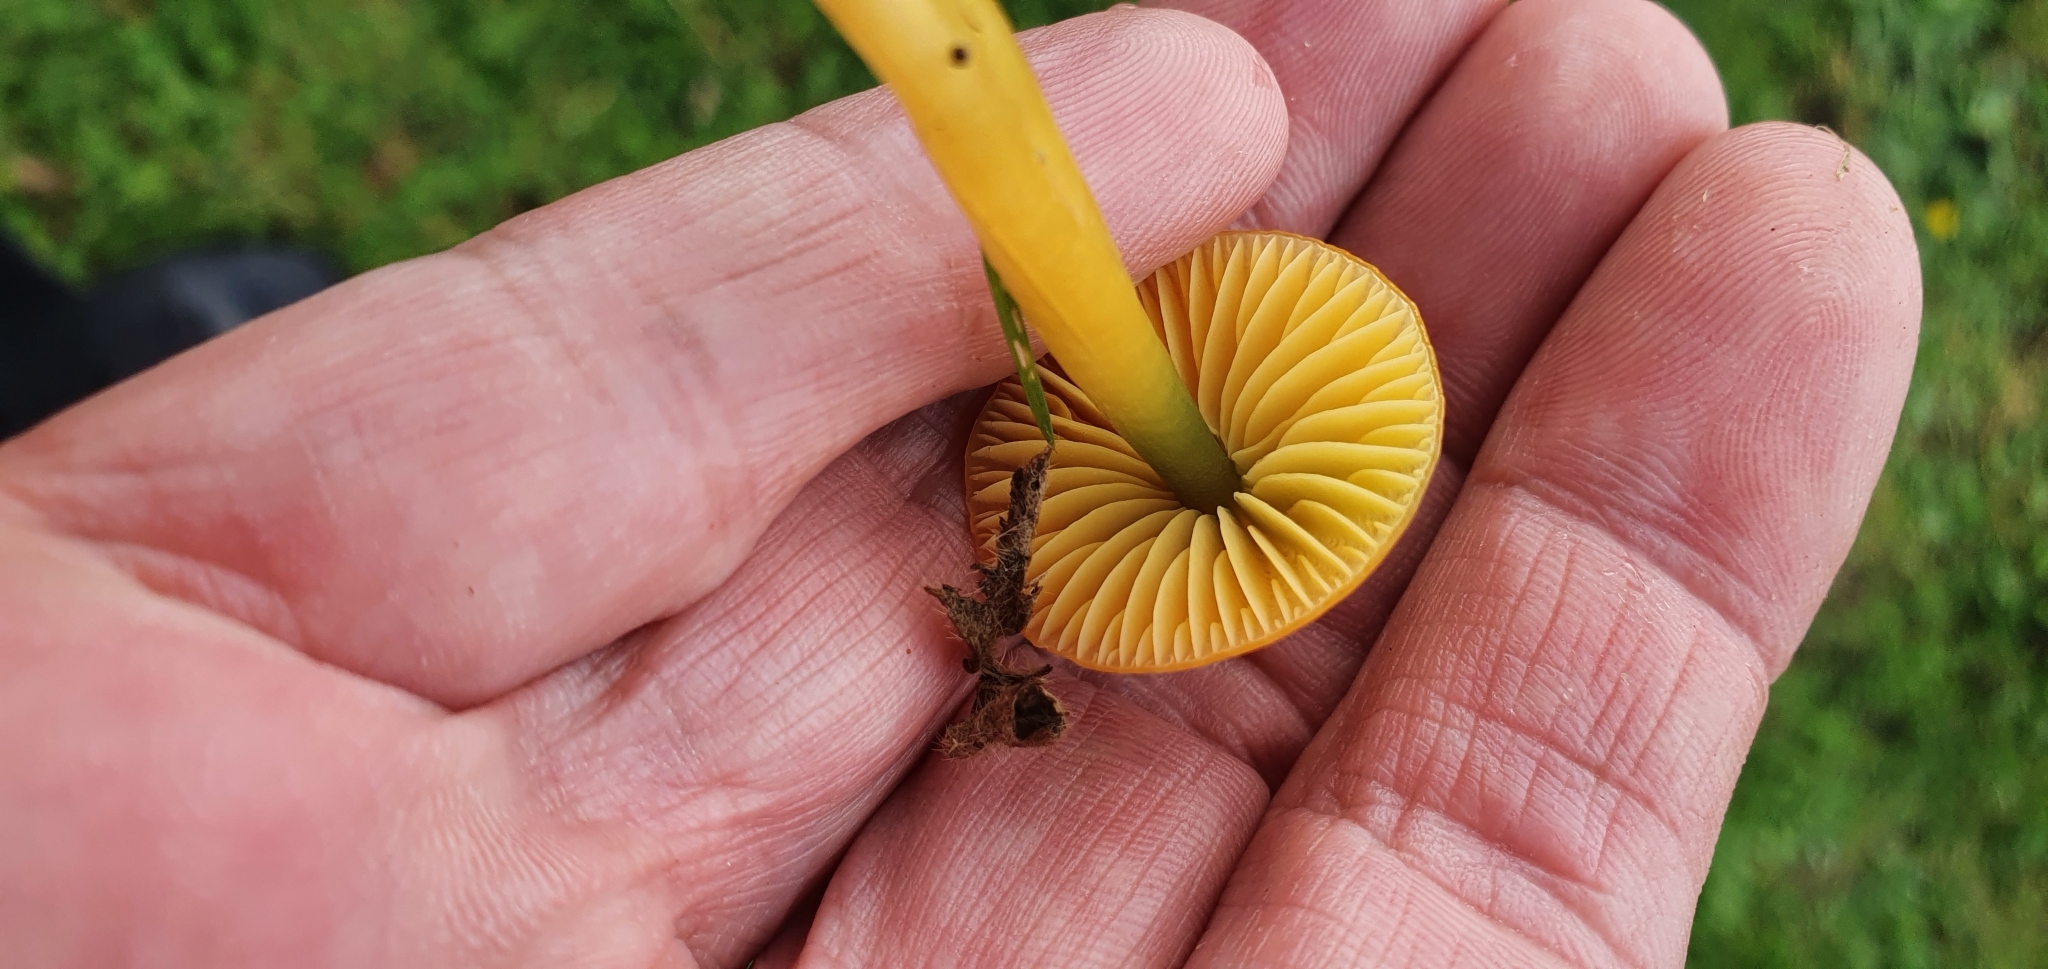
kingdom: Fungi
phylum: Basidiomycota
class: Agaricomycetes
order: Agaricales
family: Hygrophoraceae
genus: Gliophorus
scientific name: Gliophorus psittacinus
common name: Parrot wax-cap
